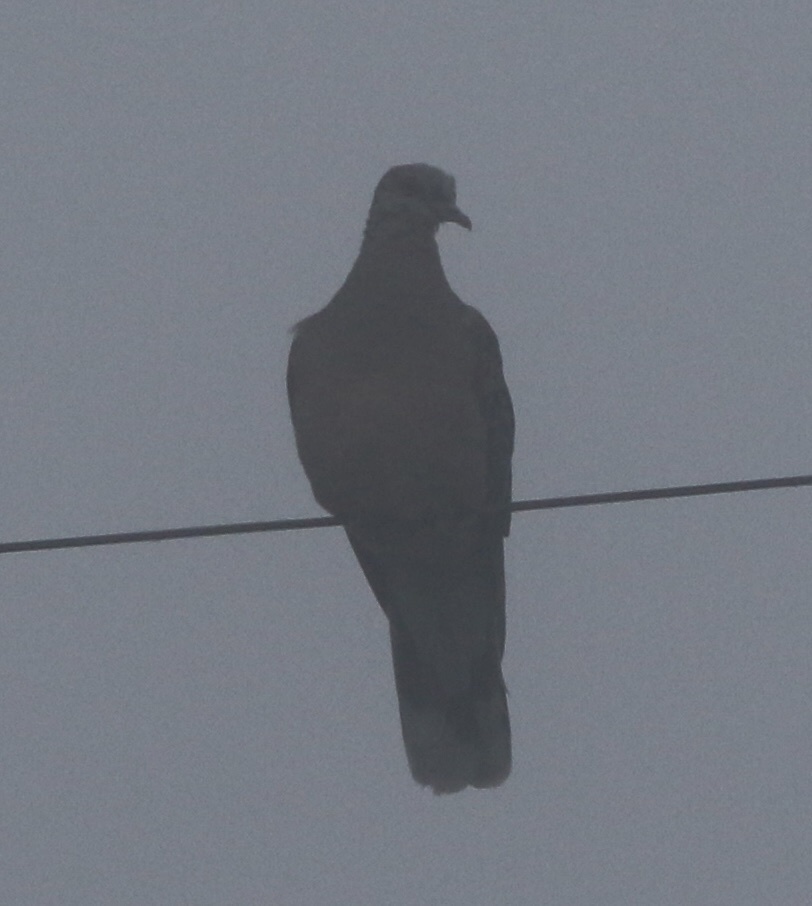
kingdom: Animalia
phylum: Chordata
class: Aves
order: Columbiformes
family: Columbidae
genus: Streptopelia
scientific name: Streptopelia orientalis
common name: Oriental turtle dove
